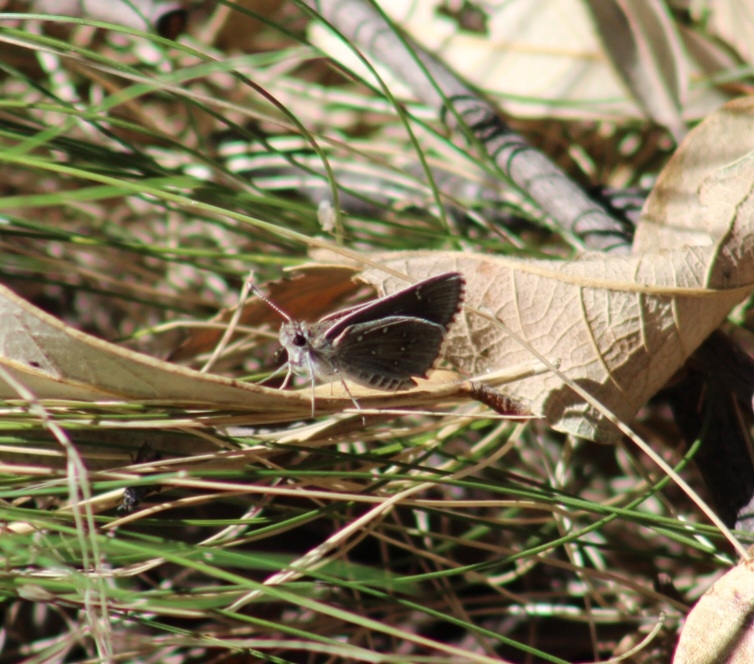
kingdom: Animalia
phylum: Arthropoda
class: Insecta
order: Lepidoptera
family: Hesperiidae
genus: Mastor
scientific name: Mastor eos
